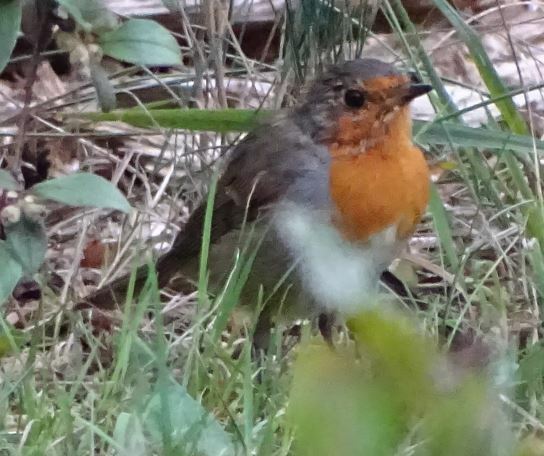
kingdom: Animalia
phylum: Chordata
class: Aves
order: Passeriformes
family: Muscicapidae
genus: Erithacus
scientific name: Erithacus rubecula
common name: European robin
